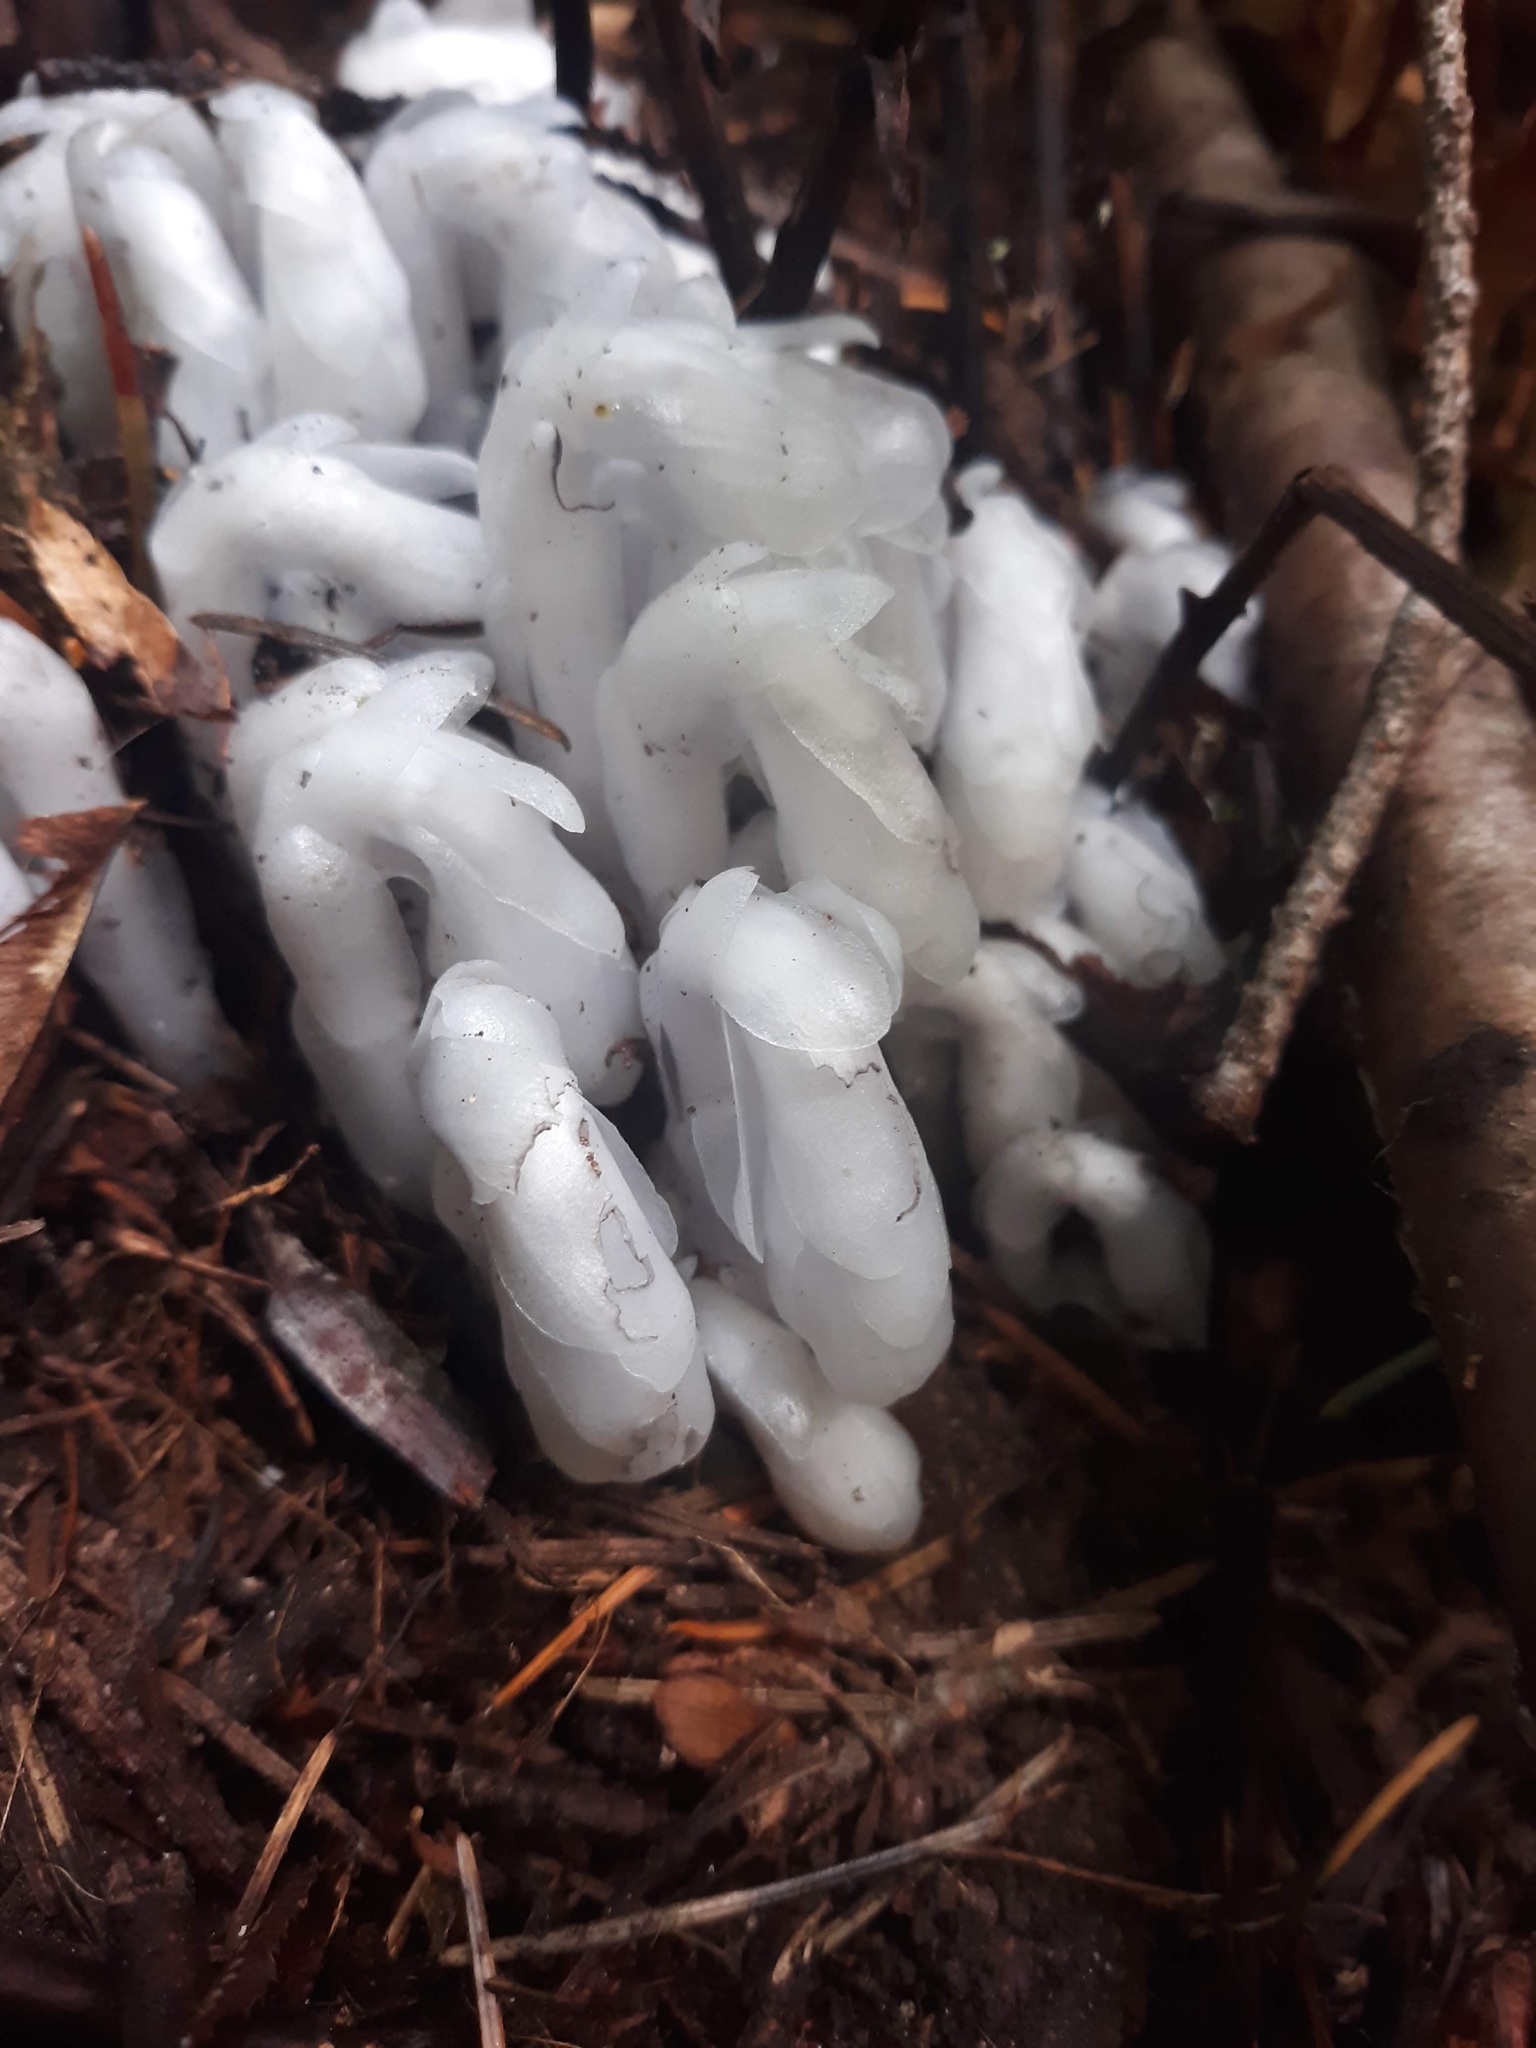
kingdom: Plantae
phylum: Tracheophyta
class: Magnoliopsida
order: Ericales
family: Ericaceae
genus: Monotropa
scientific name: Monotropa uniflora
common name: Convulsion root
